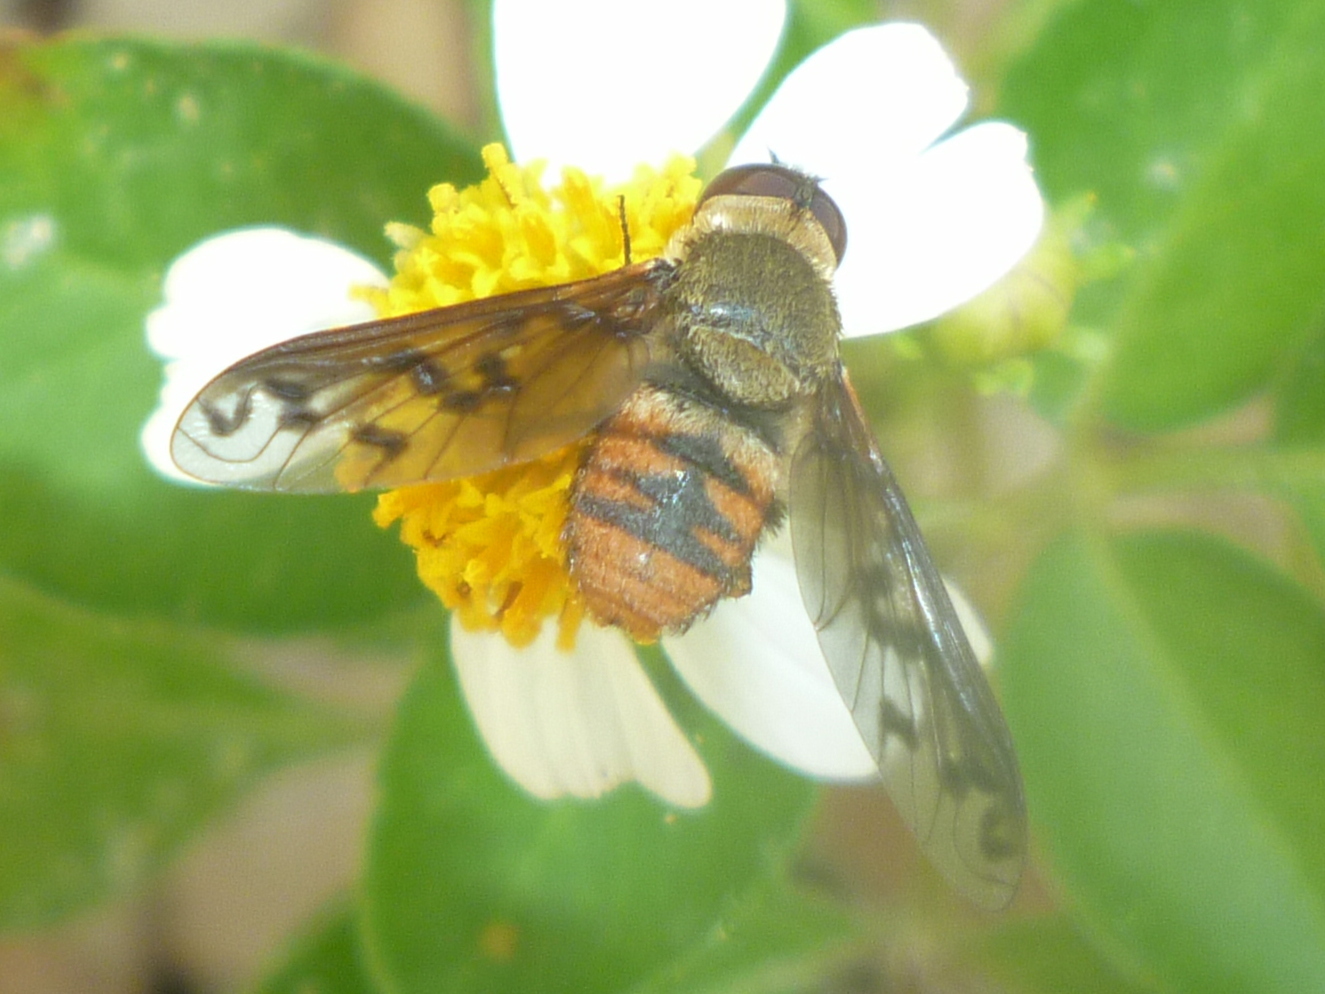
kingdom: Animalia
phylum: Arthropoda
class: Insecta
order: Diptera
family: Bombyliidae
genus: Neodiplocampta
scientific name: Neodiplocampta miranda
